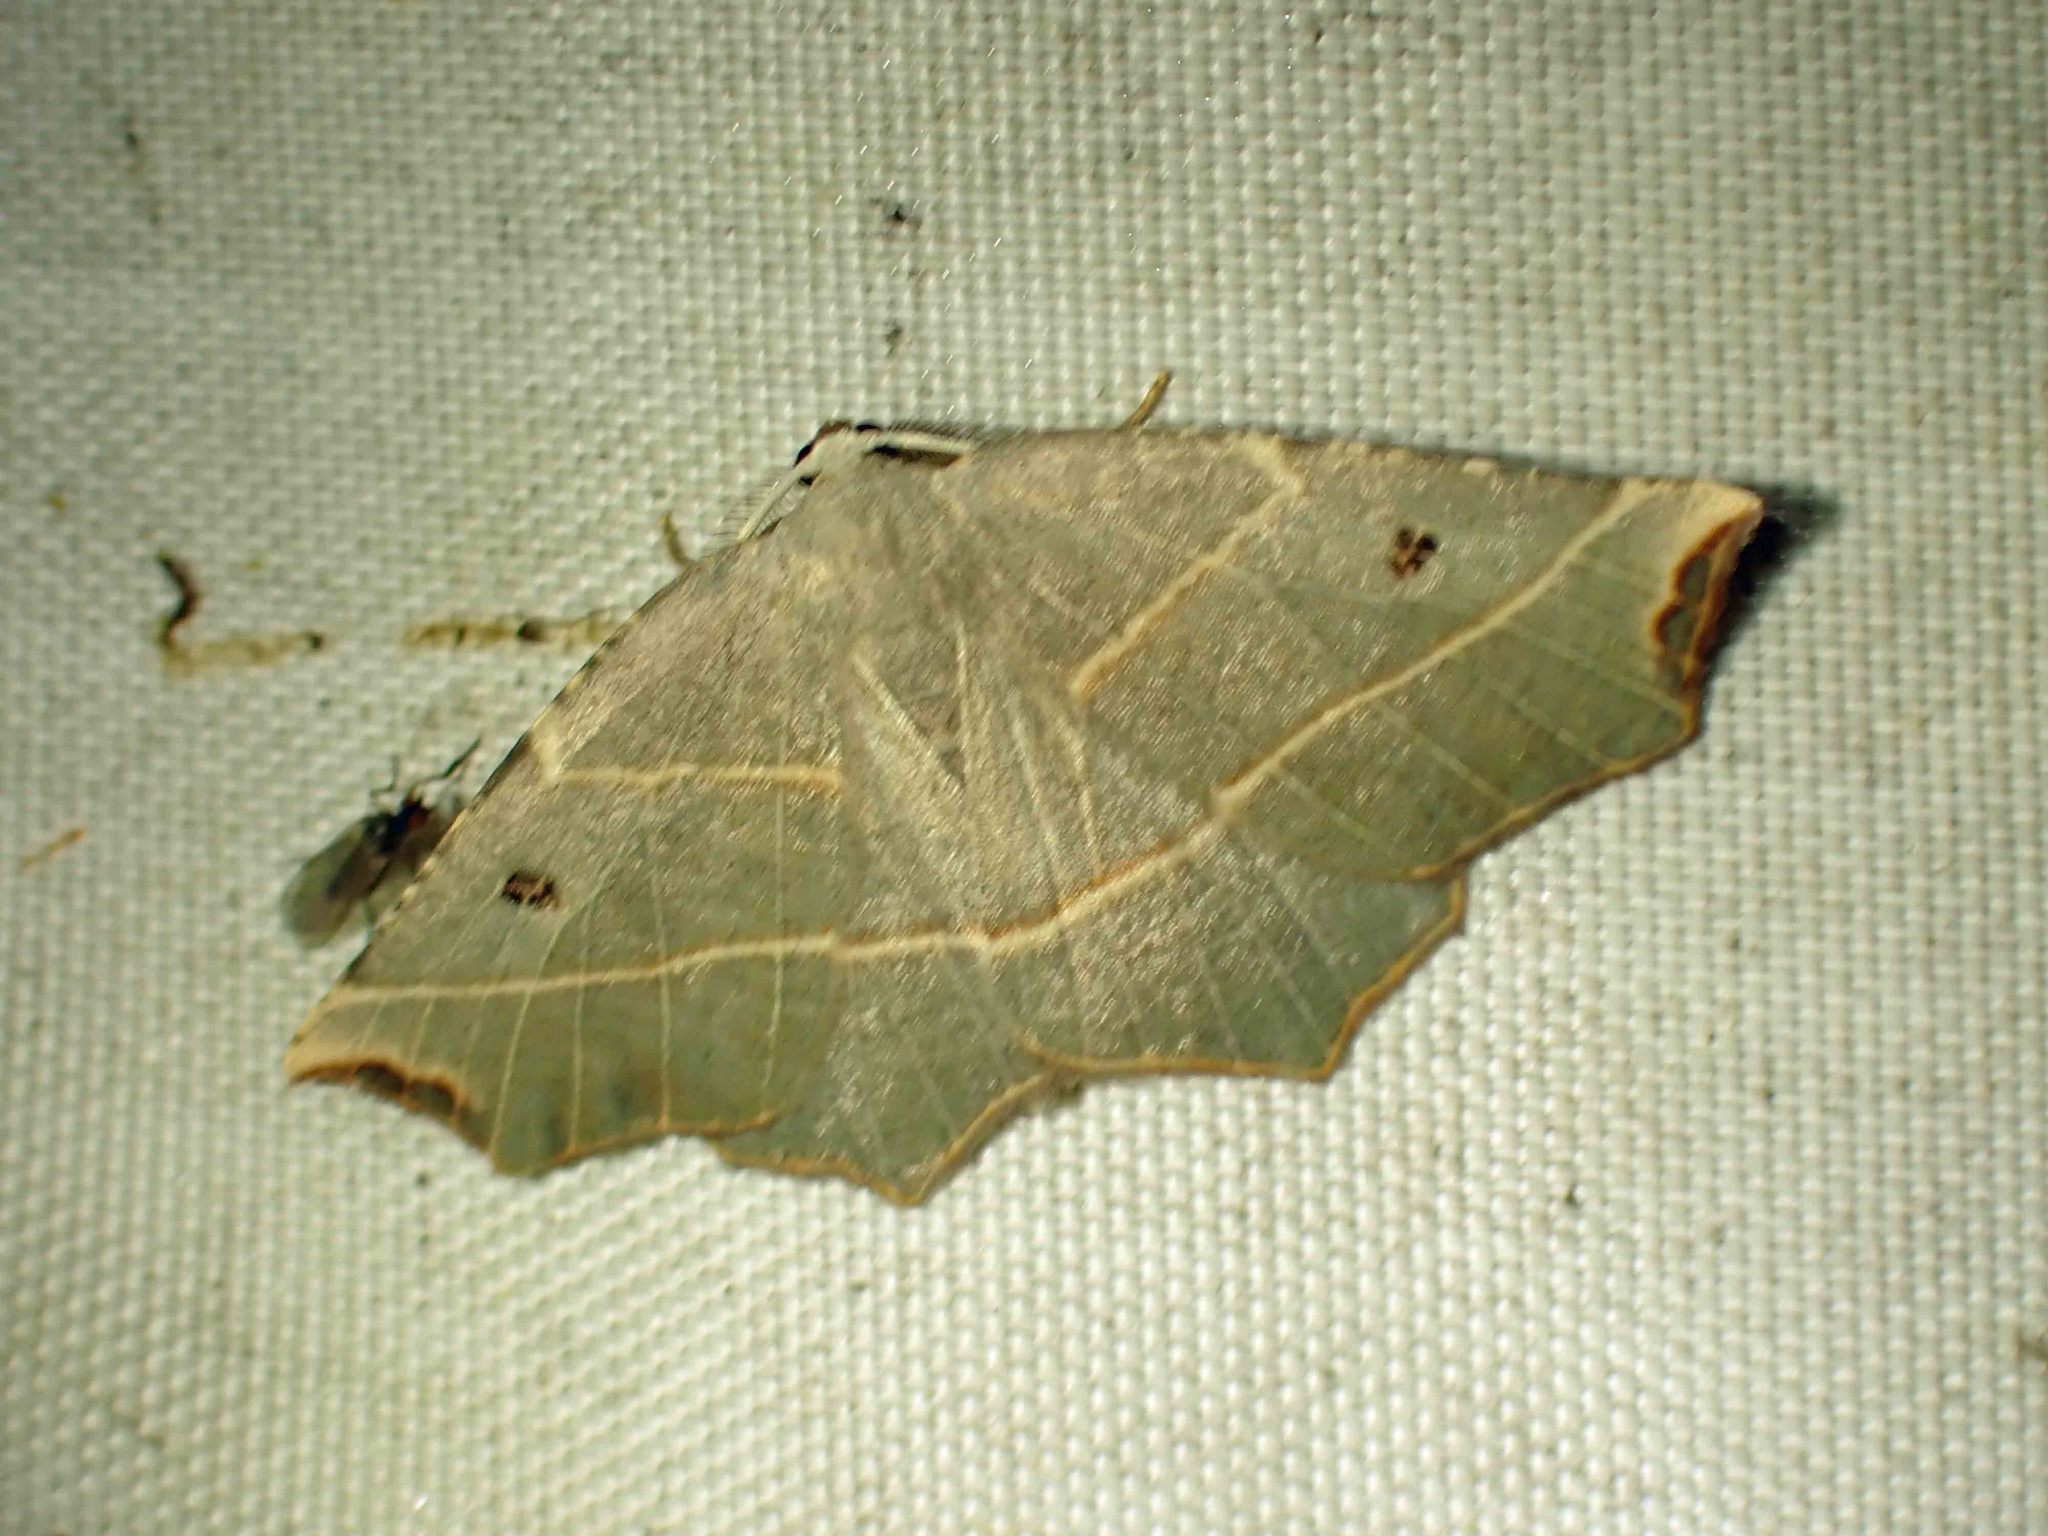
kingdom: Animalia
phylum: Arthropoda
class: Insecta
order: Lepidoptera
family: Geometridae
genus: Metanema
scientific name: Metanema inatomaria
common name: Pale metanema
